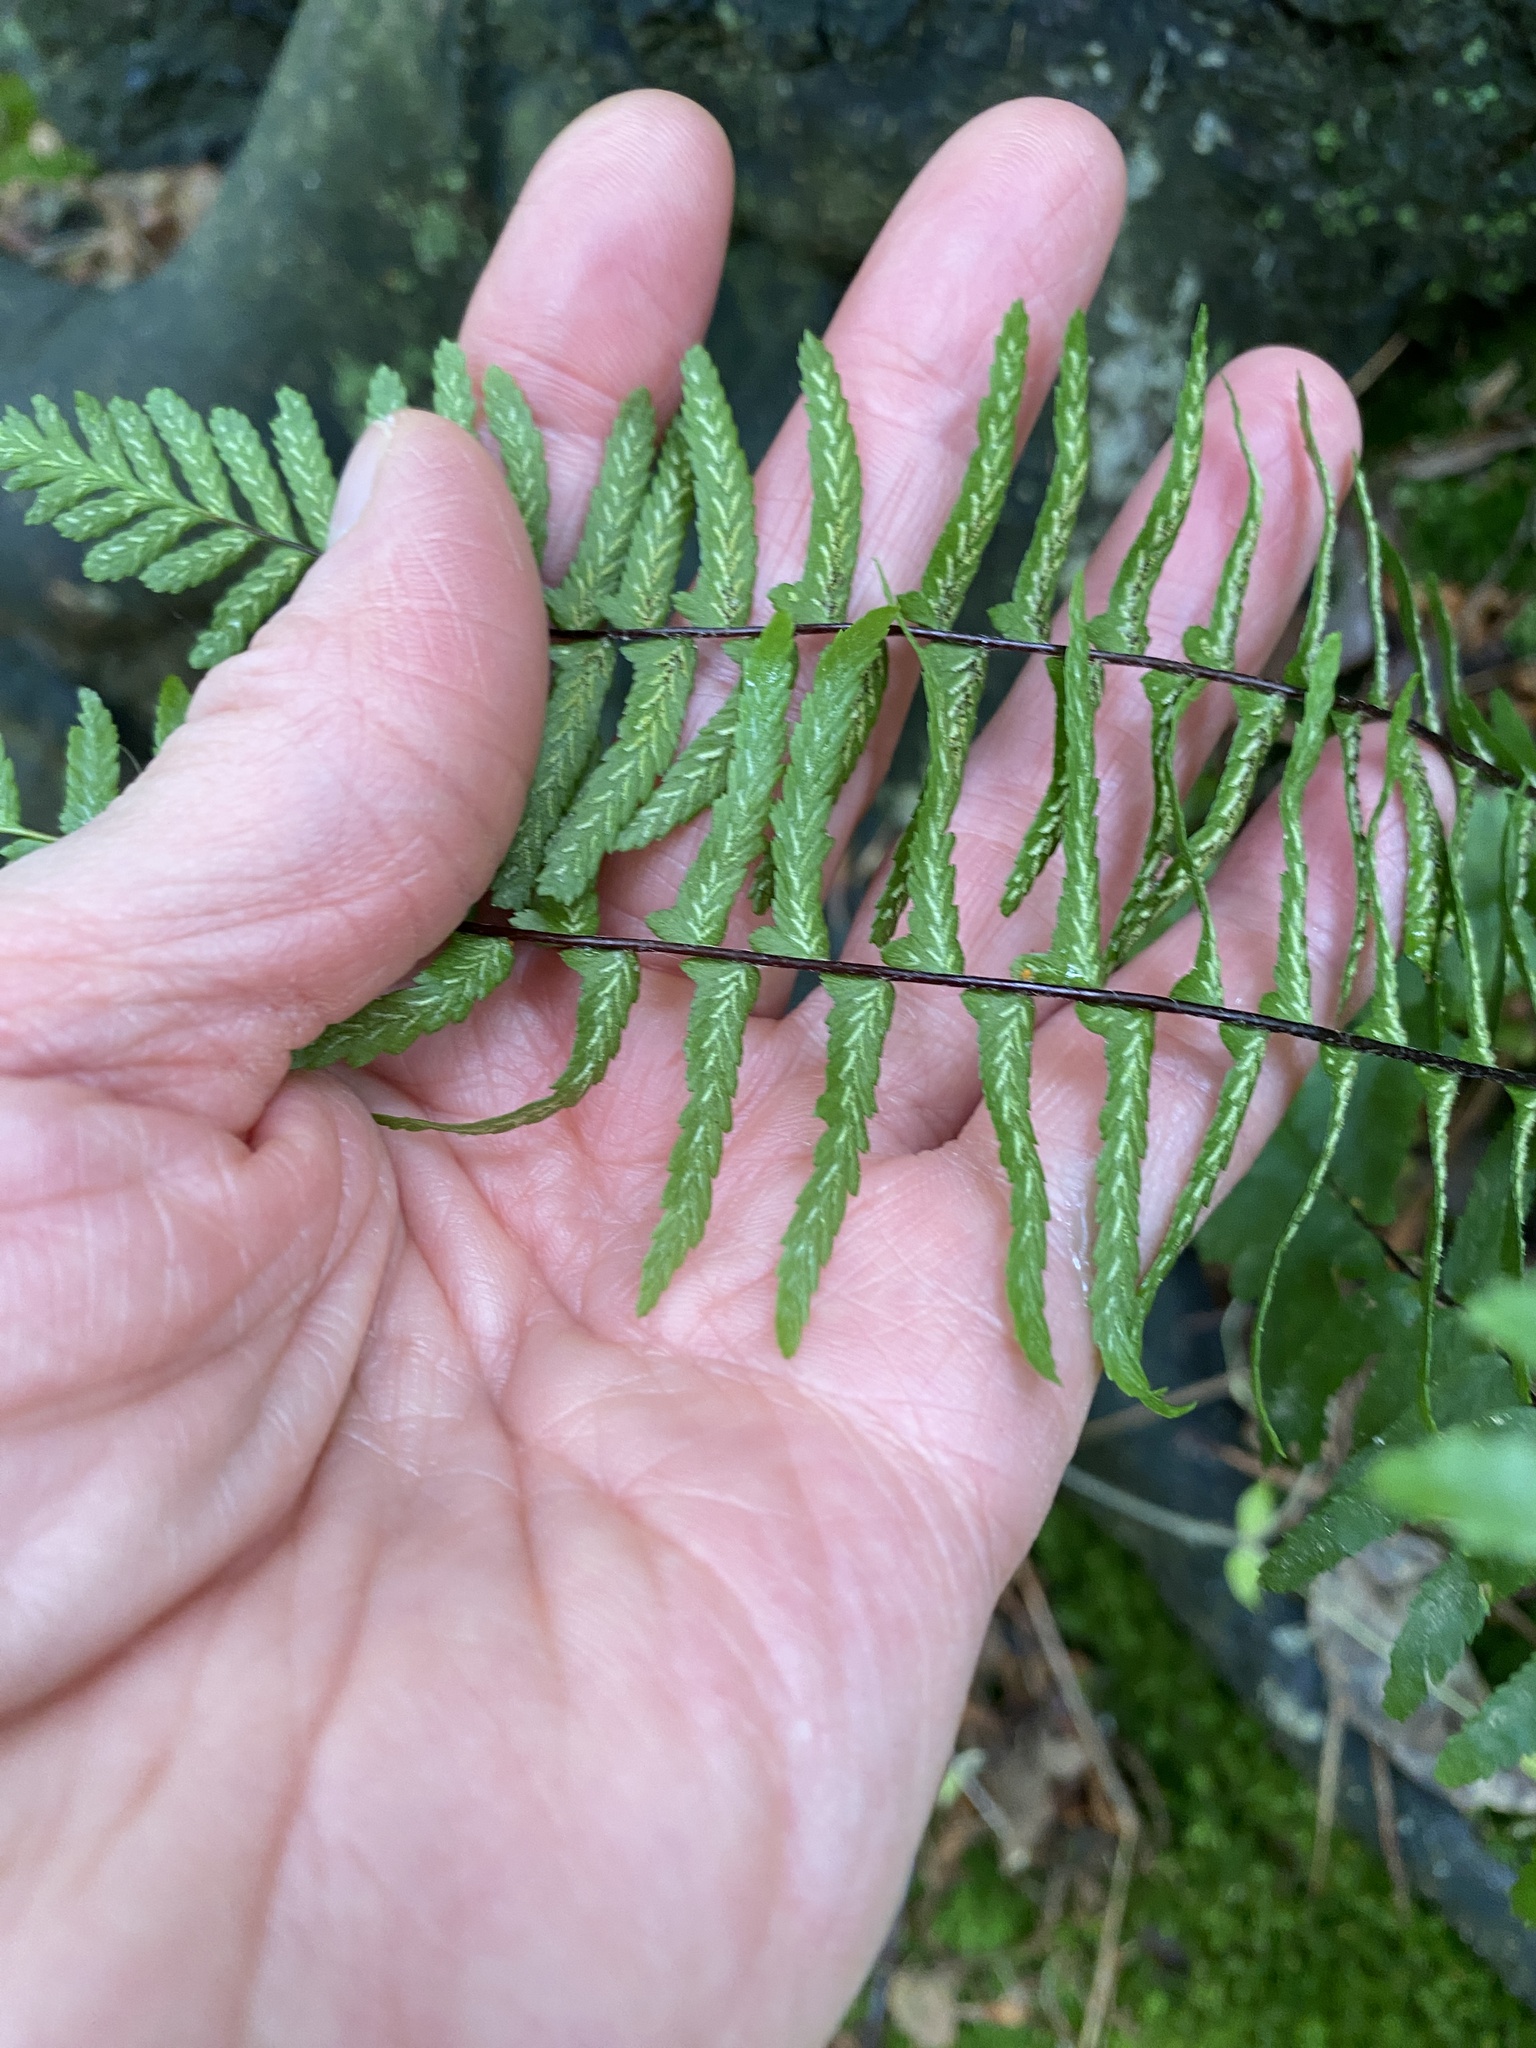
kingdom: Plantae
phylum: Tracheophyta
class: Polypodiopsida
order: Polypodiales
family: Aspleniaceae
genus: Asplenium
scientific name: Asplenium platyneuron
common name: Ebony spleenwort
